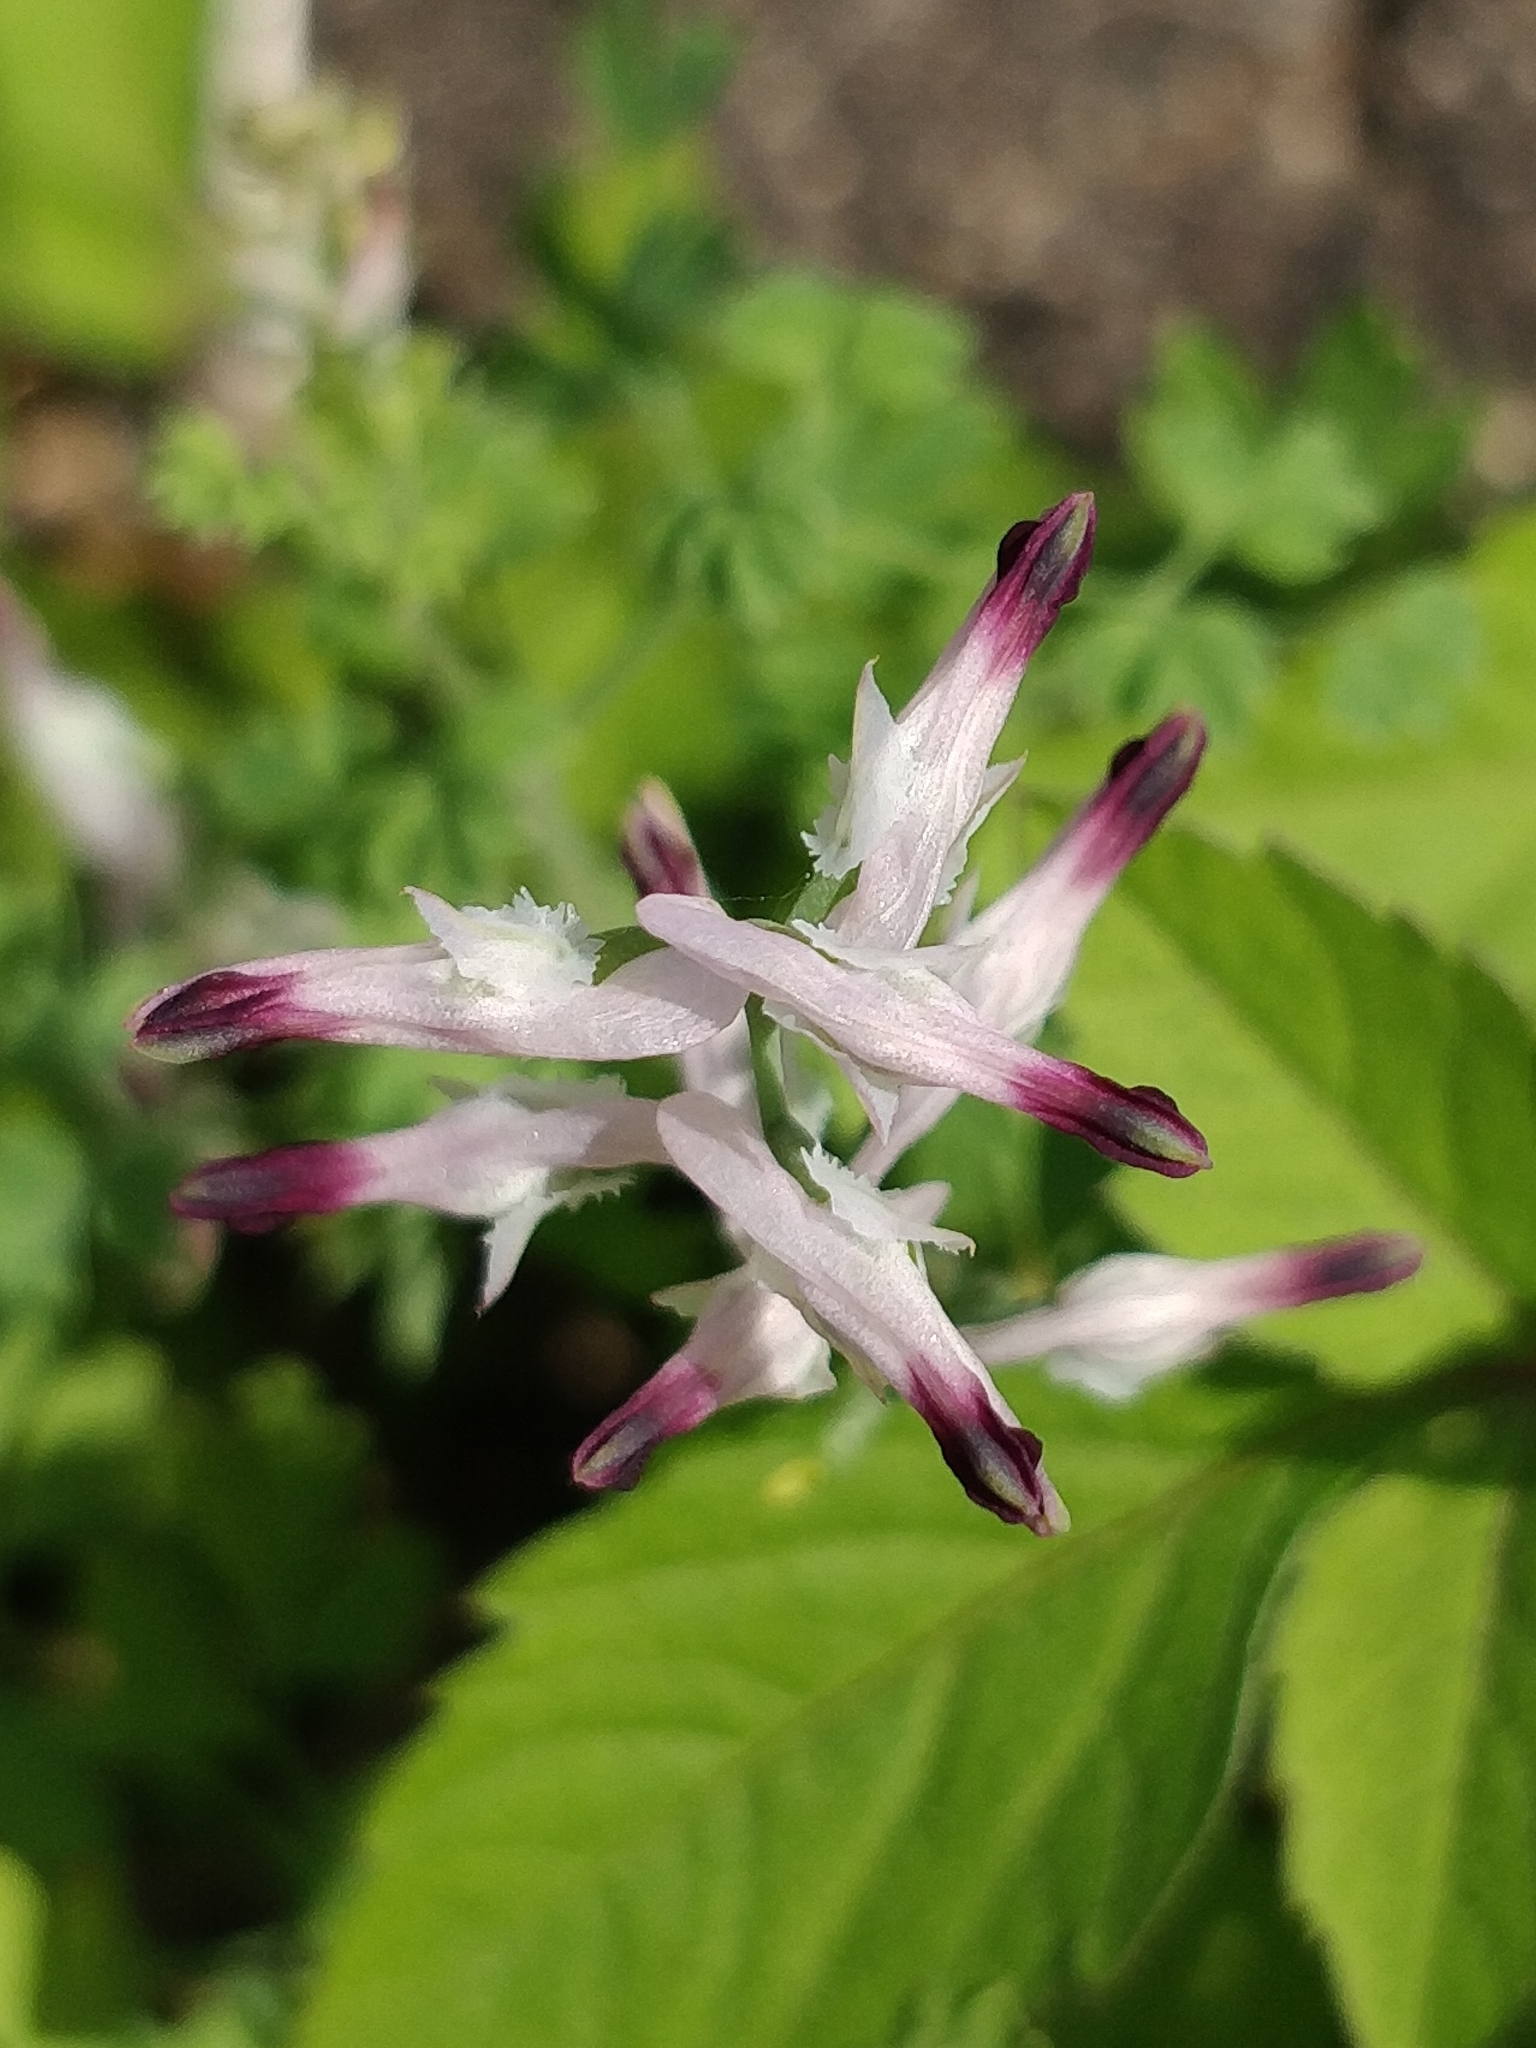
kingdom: Plantae
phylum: Tracheophyta
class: Magnoliopsida
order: Ranunculales
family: Papaveraceae
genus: Fumaria
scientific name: Fumaria sepium
